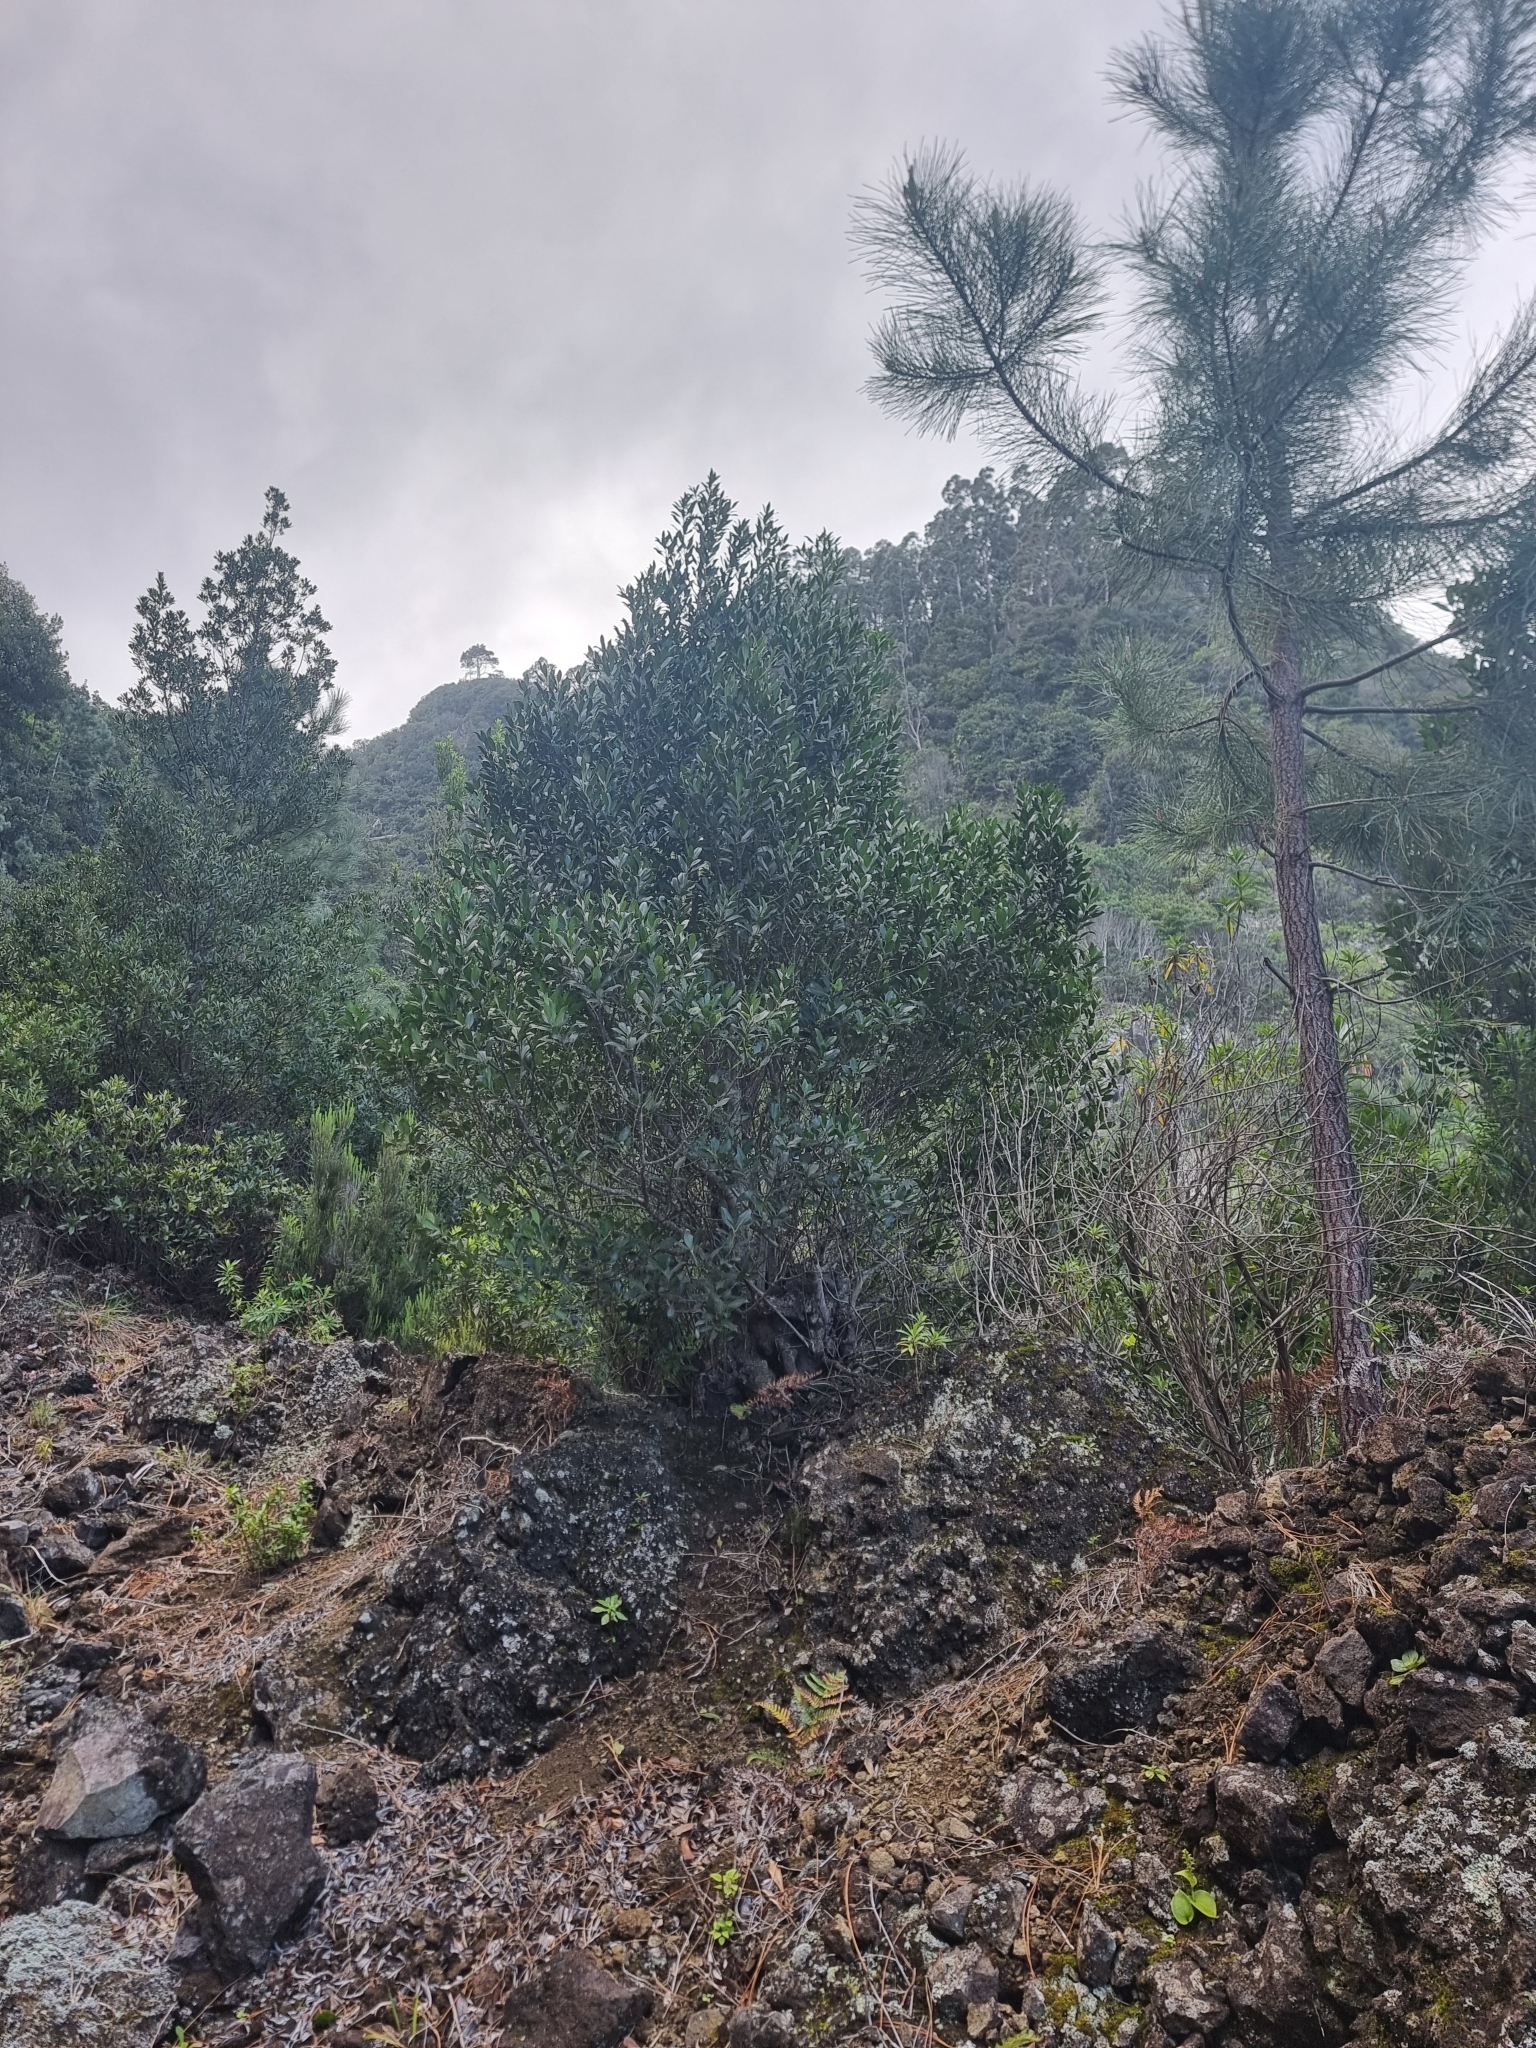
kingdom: Plantae
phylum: Tracheophyta
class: Magnoliopsida
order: Aquifoliales
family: Aquifoliaceae
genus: Ilex
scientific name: Ilex canariensis
